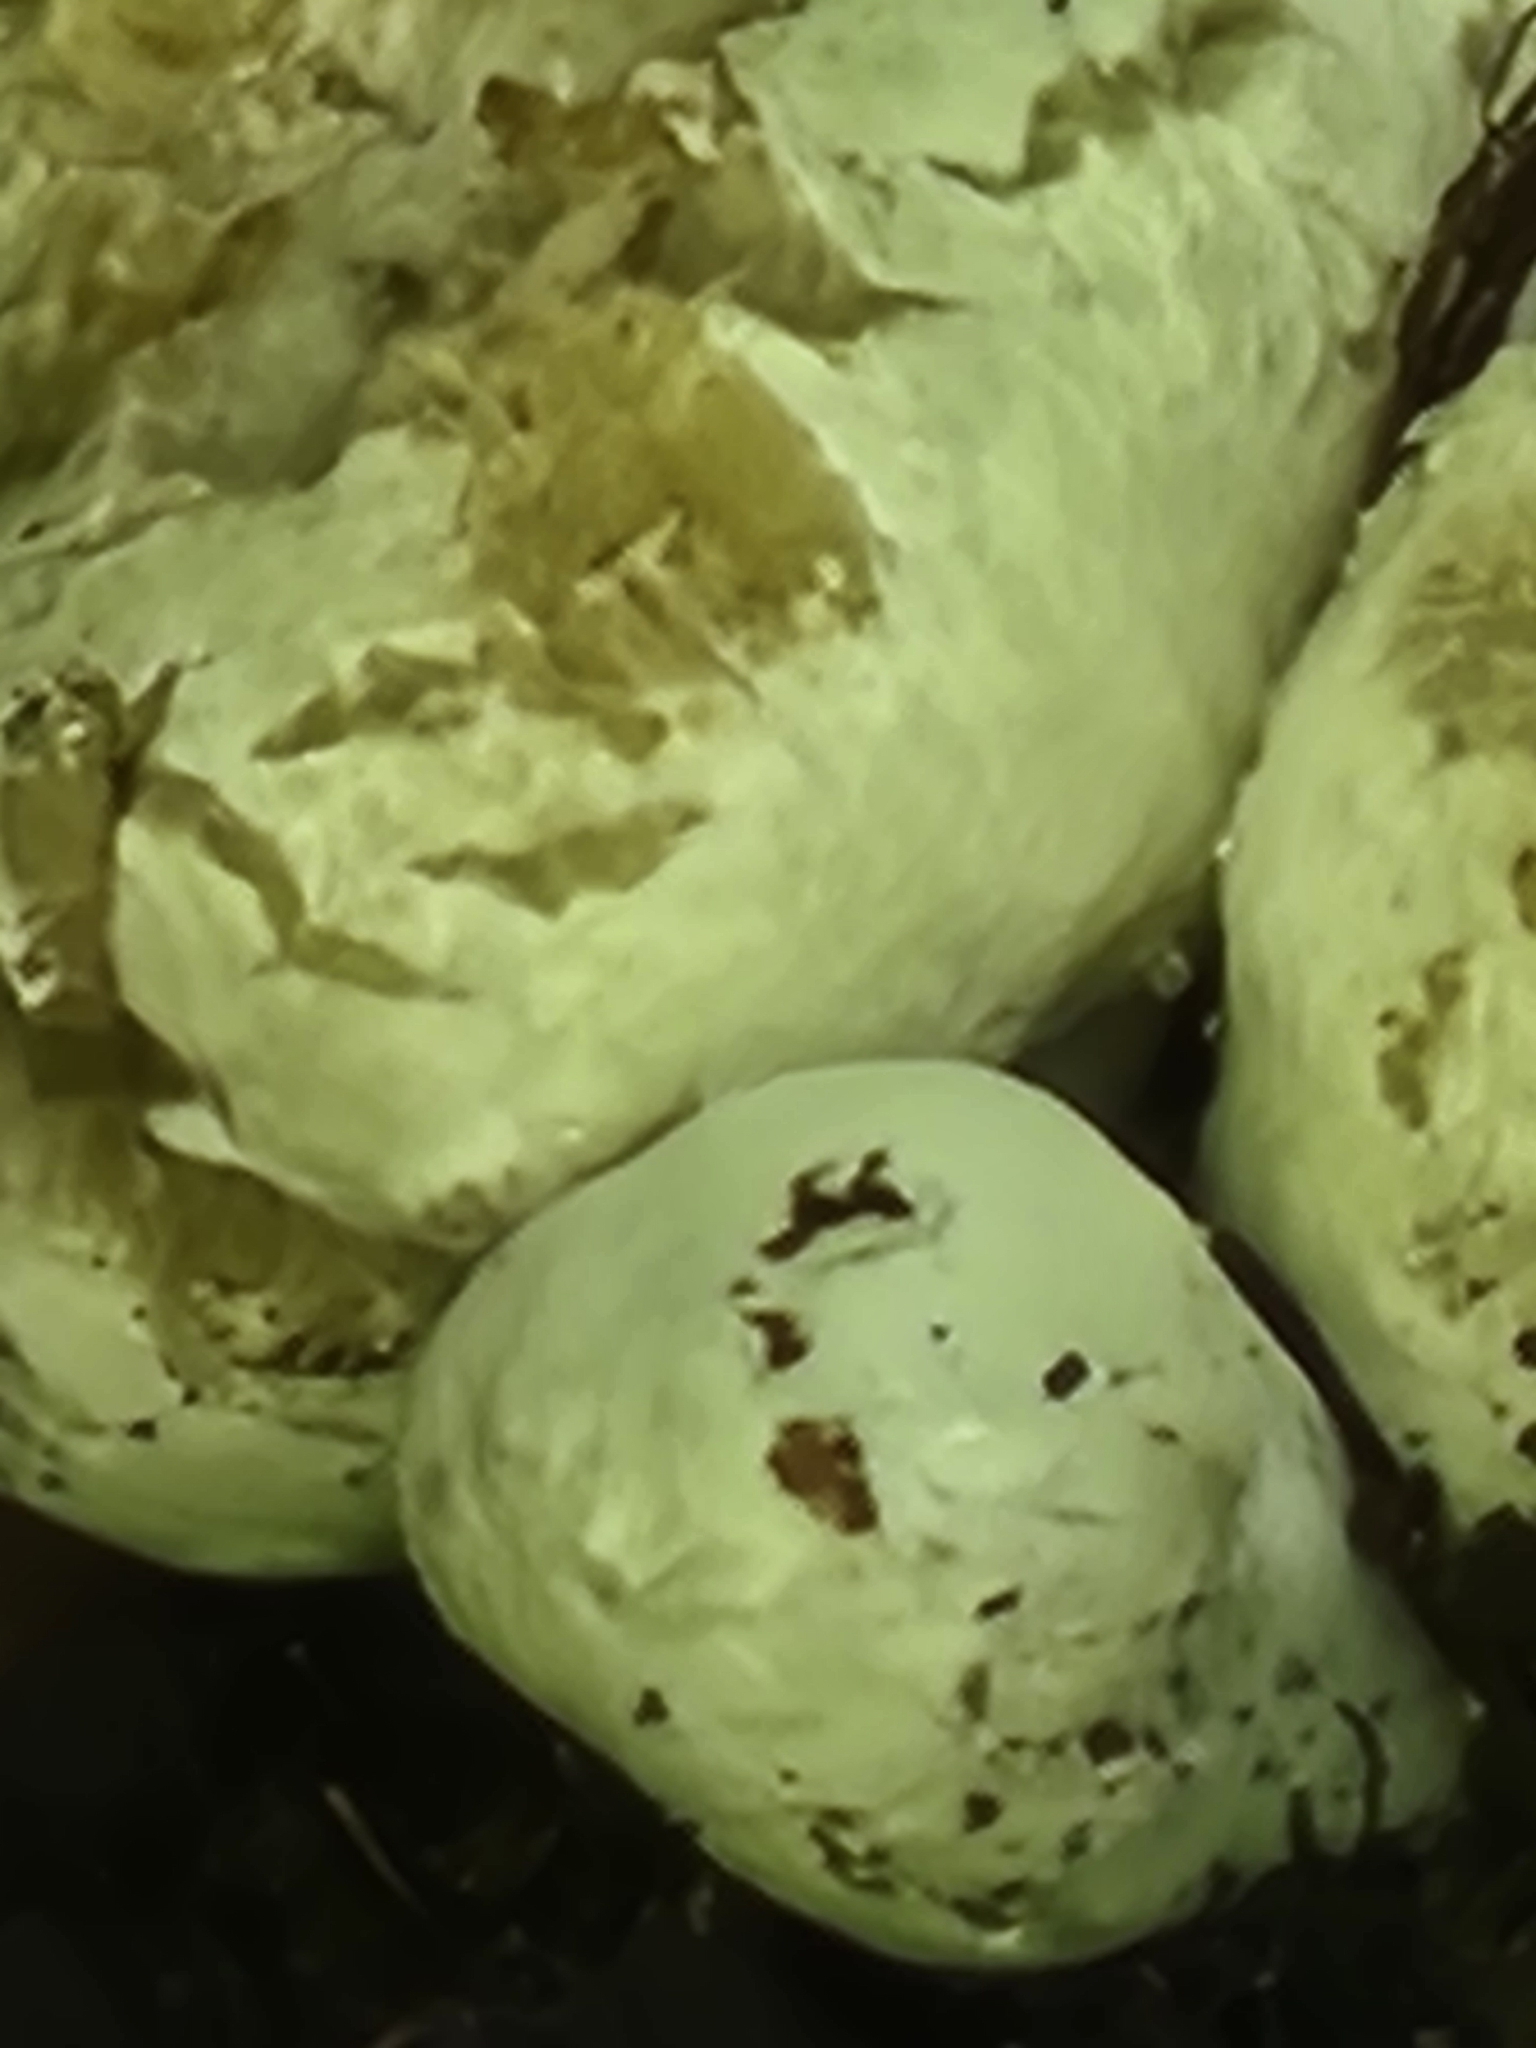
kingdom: Fungi
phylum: Basidiomycota
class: Agaricomycetes
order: Agaricales
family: Entolomataceae
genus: Entoloma
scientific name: Entoloma abortivum
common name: Aborted entoloma
